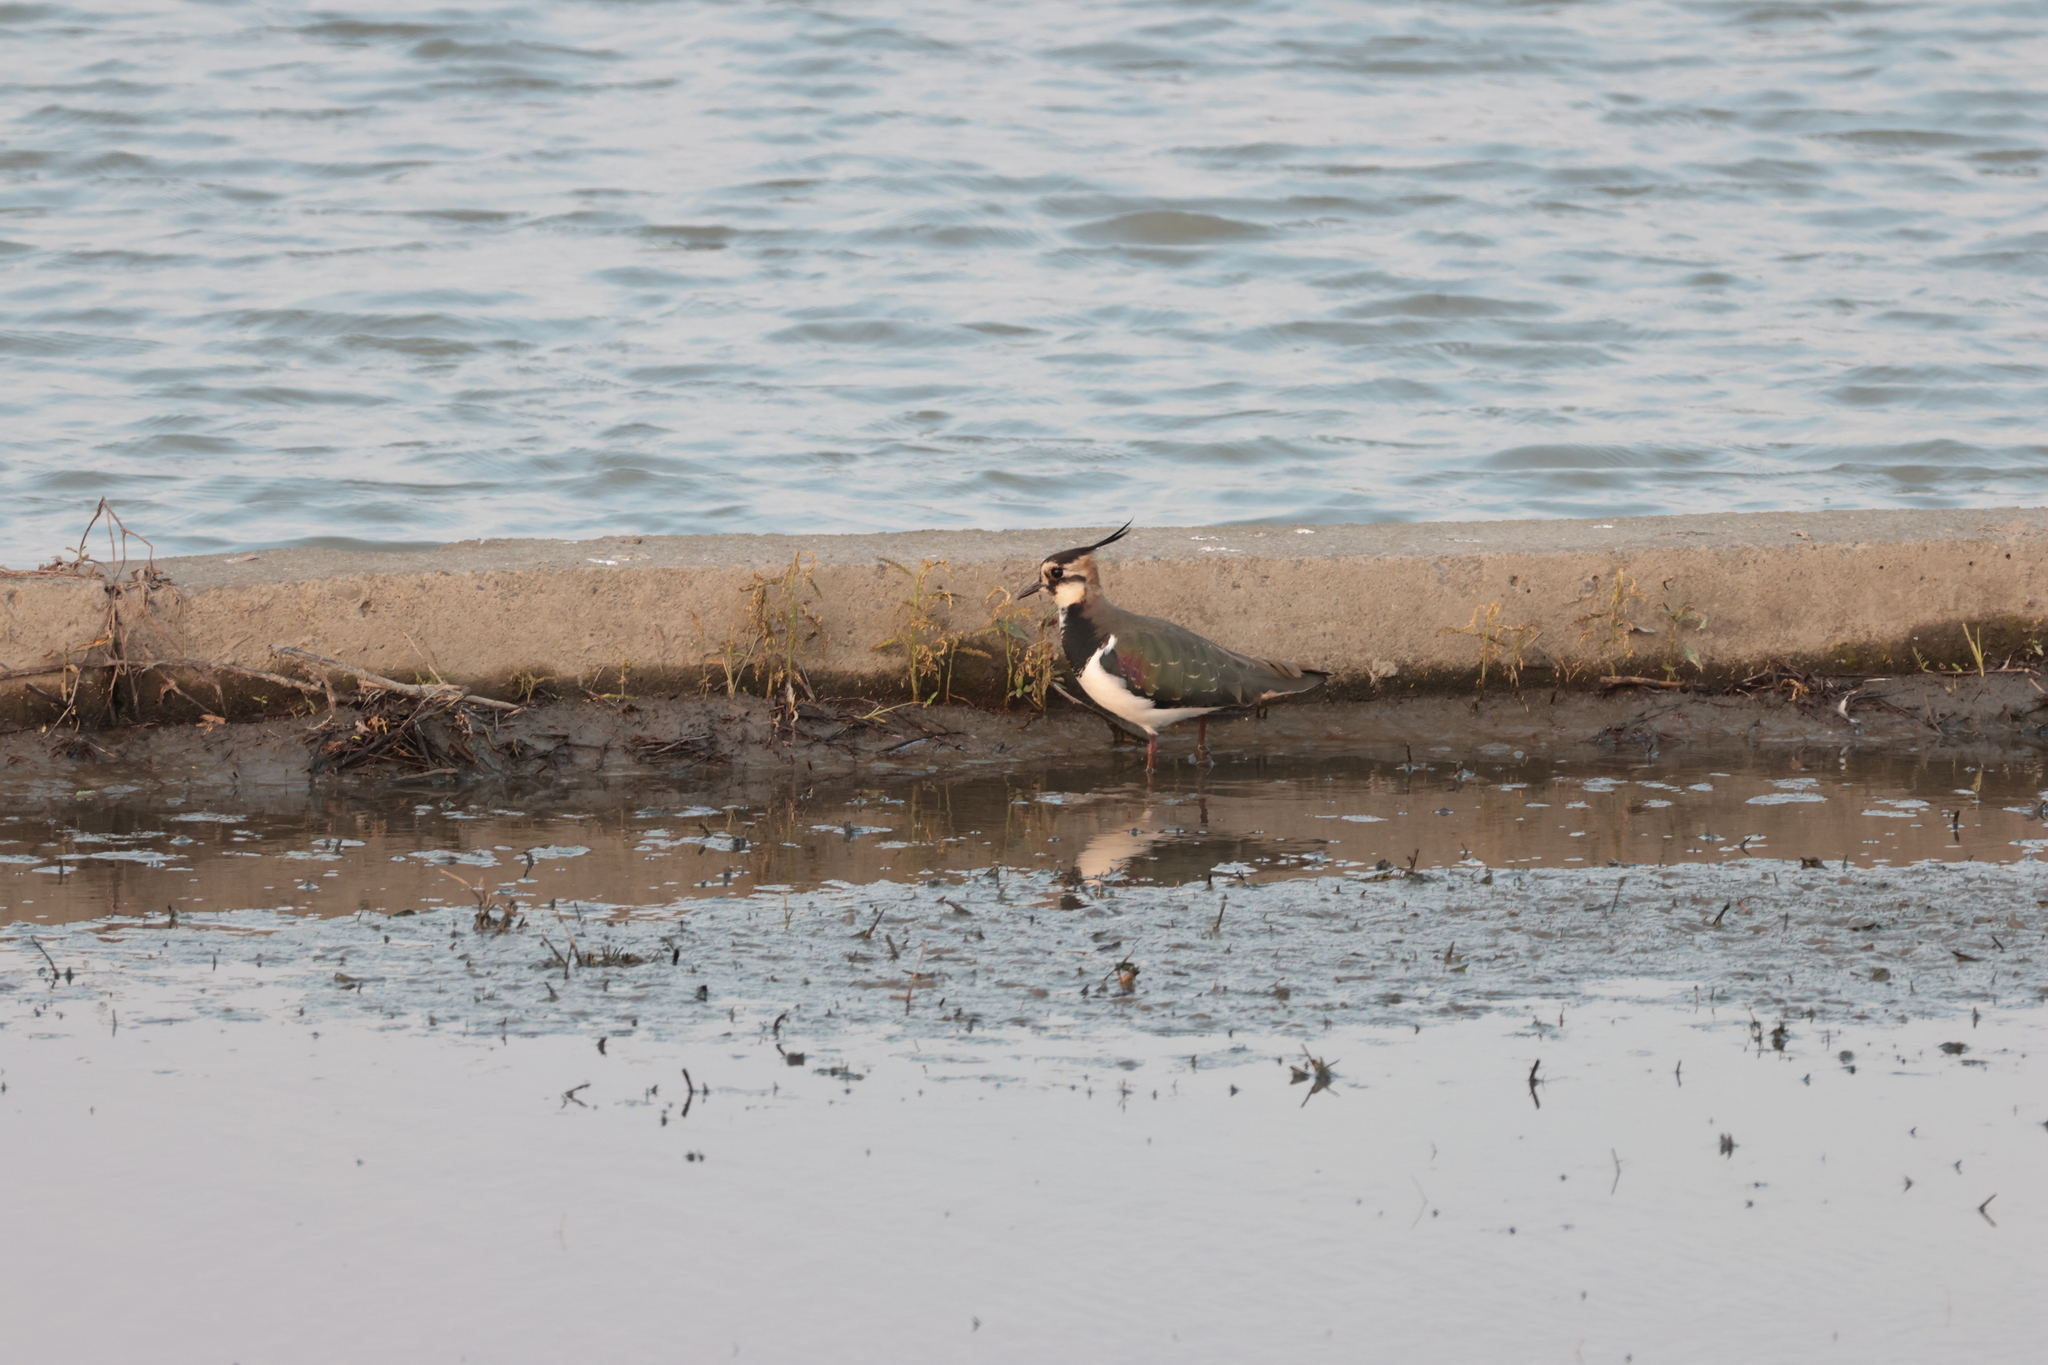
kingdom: Animalia
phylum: Chordata
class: Aves
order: Charadriiformes
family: Charadriidae
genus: Vanellus
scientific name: Vanellus vanellus
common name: Northern lapwing
